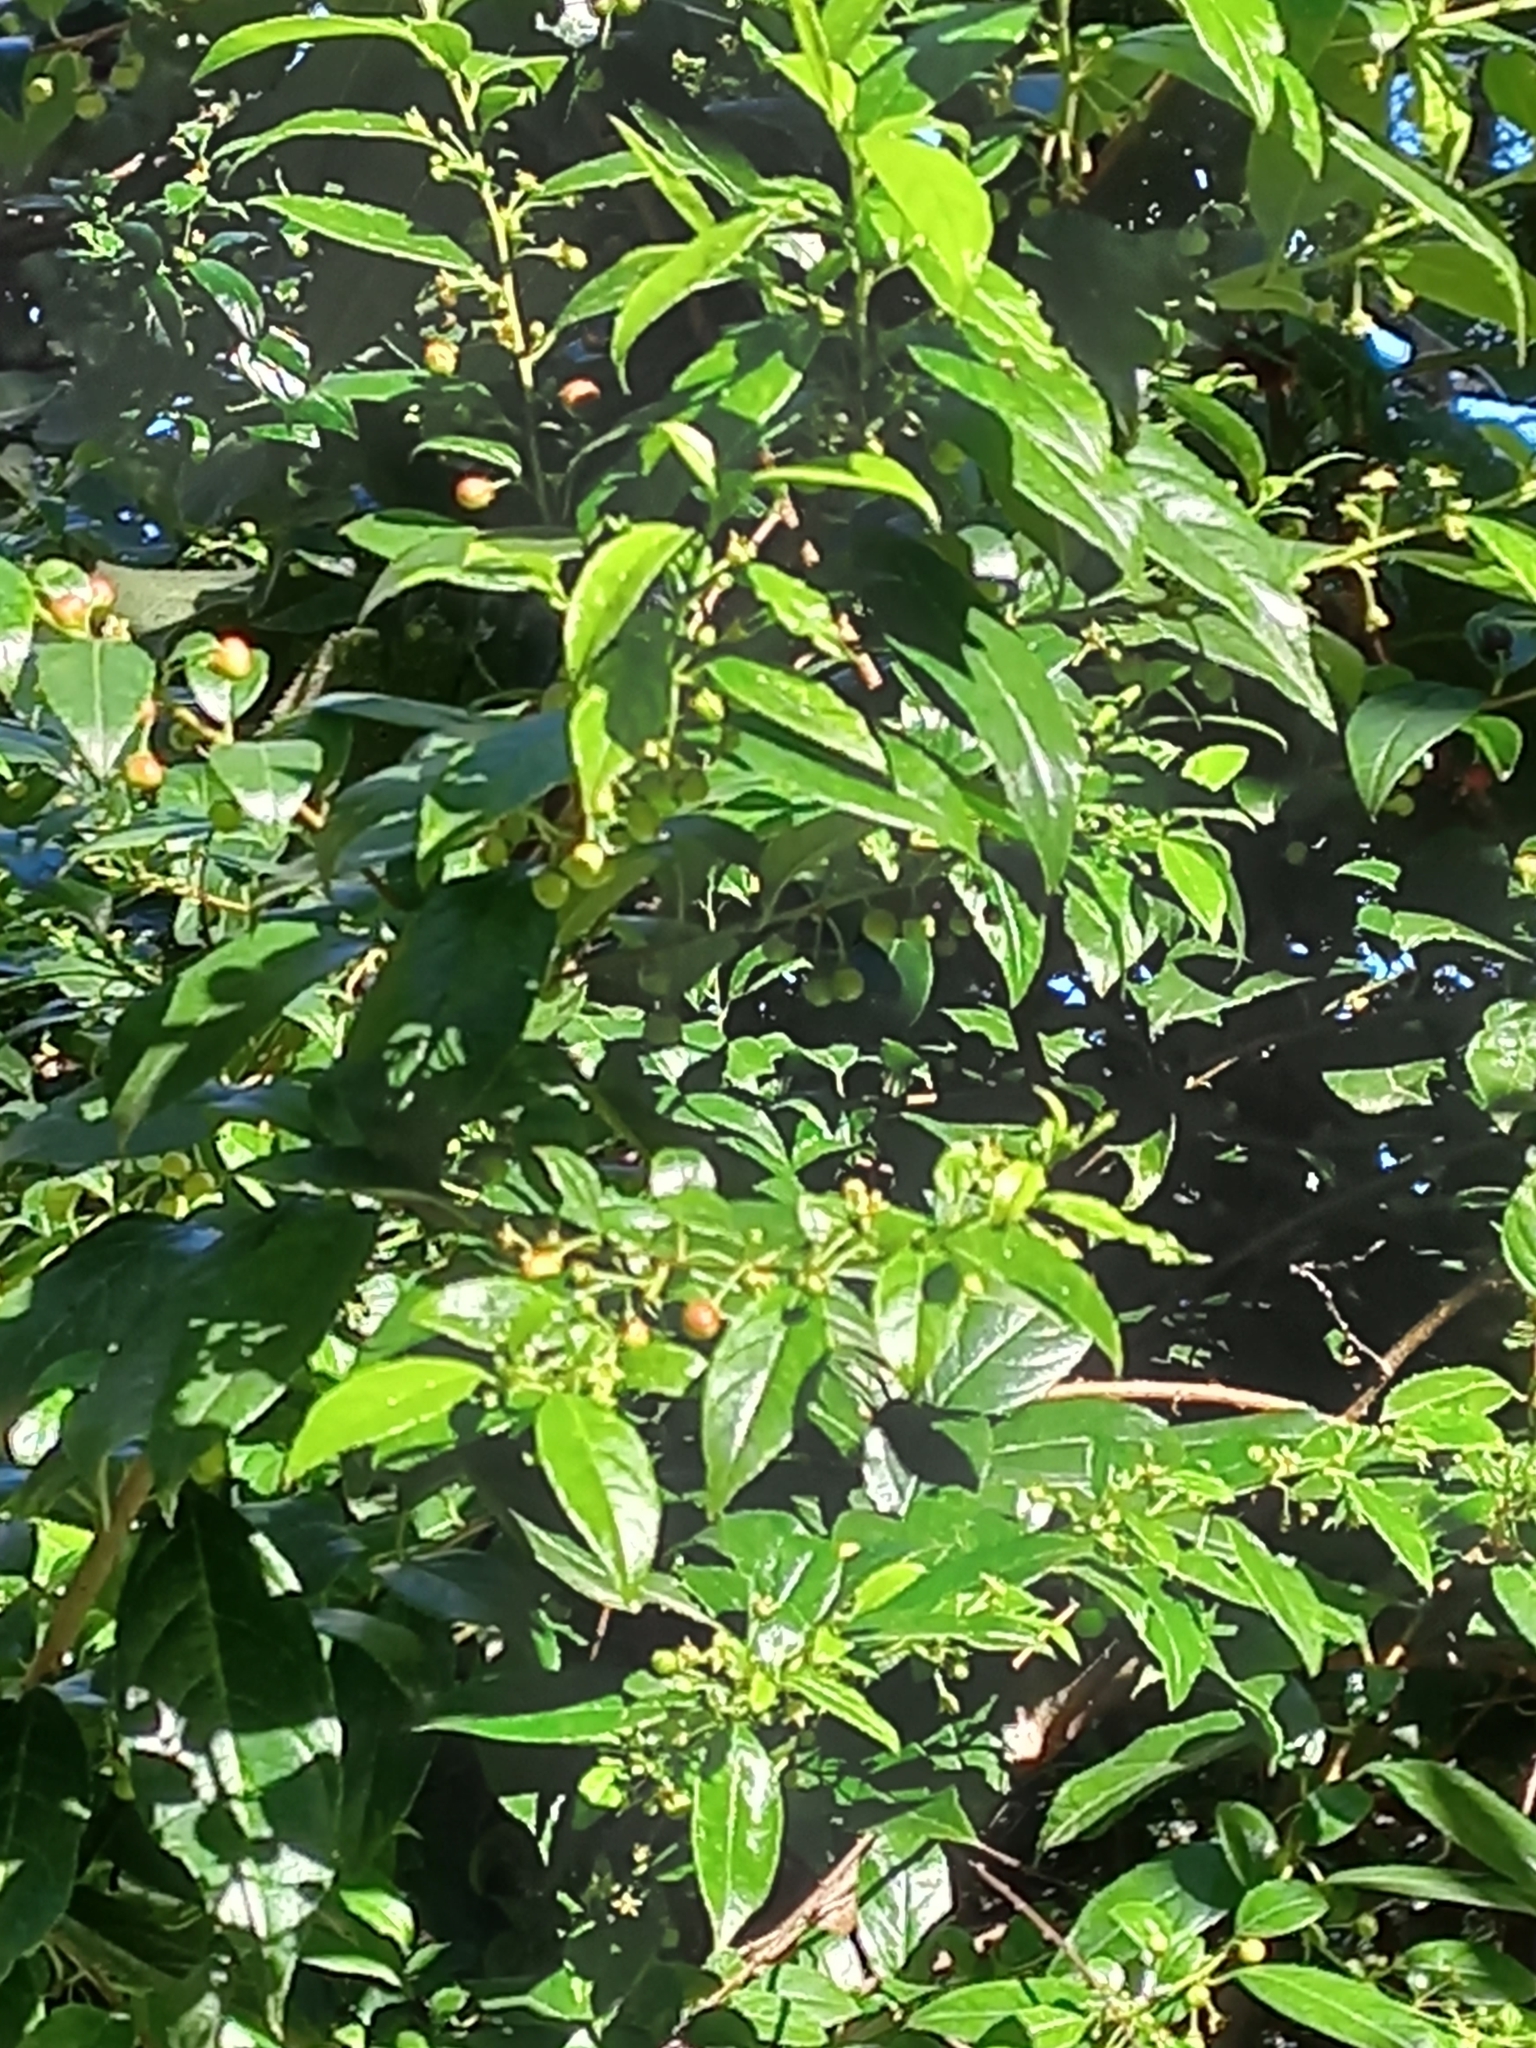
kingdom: Plantae
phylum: Tracheophyta
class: Magnoliopsida
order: Rosales
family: Rhamnaceae
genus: Rhamnus
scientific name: Rhamnus prinoides
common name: Dogwood
